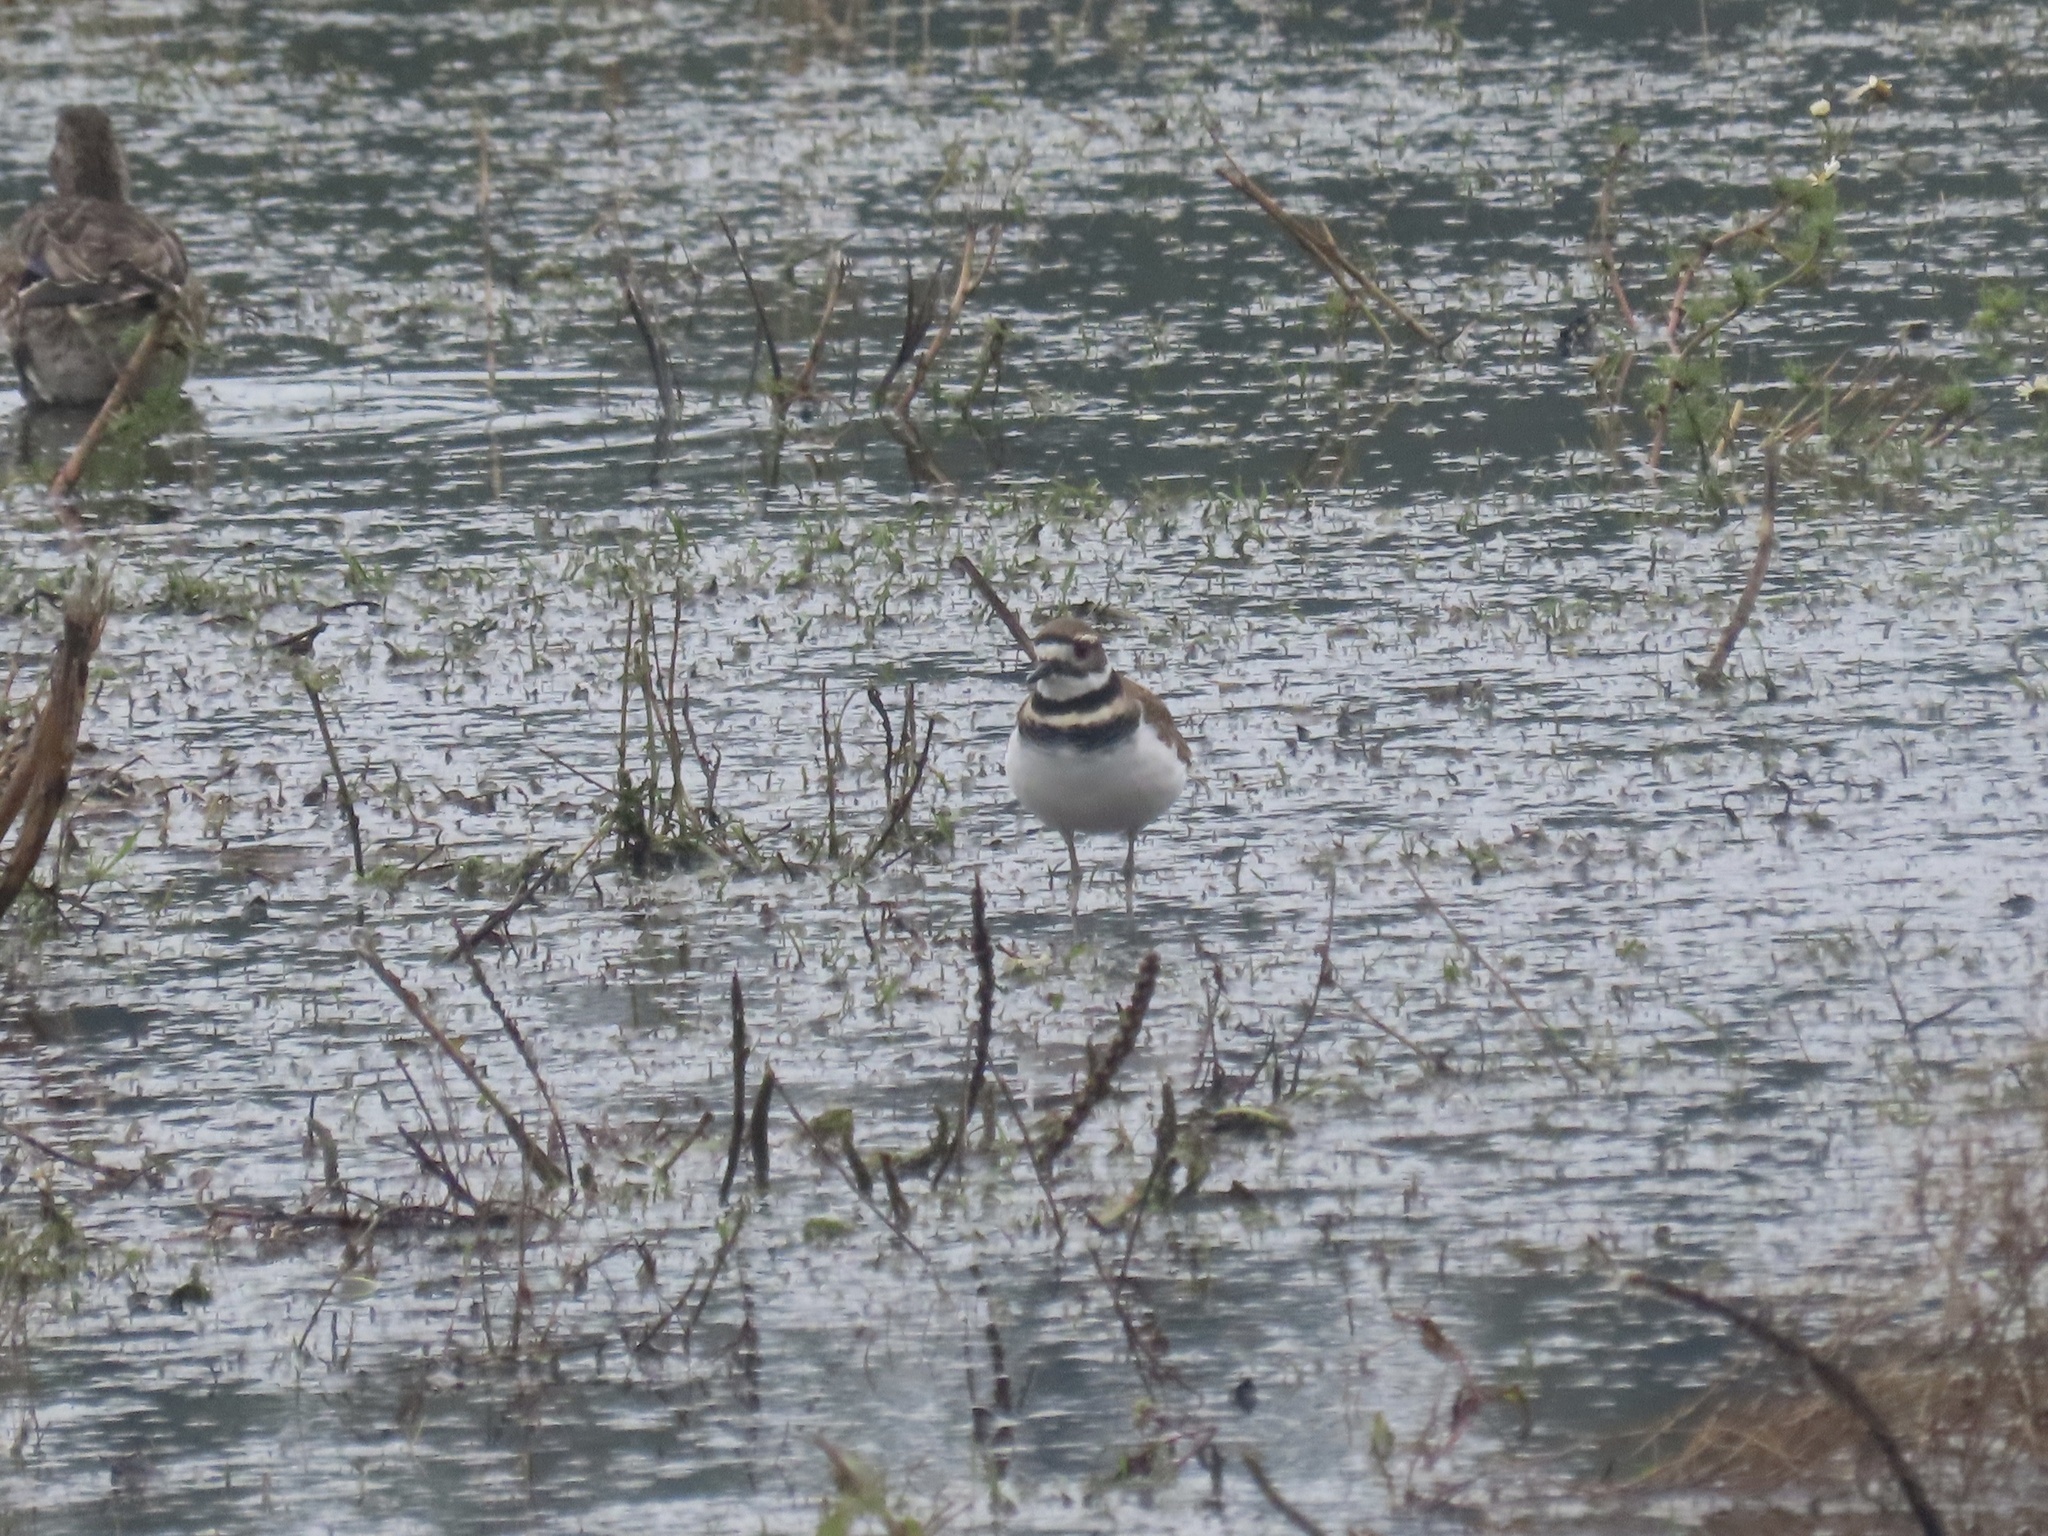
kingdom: Animalia
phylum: Chordata
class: Aves
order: Charadriiformes
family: Charadriidae
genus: Charadrius
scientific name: Charadrius vociferus
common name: Killdeer
